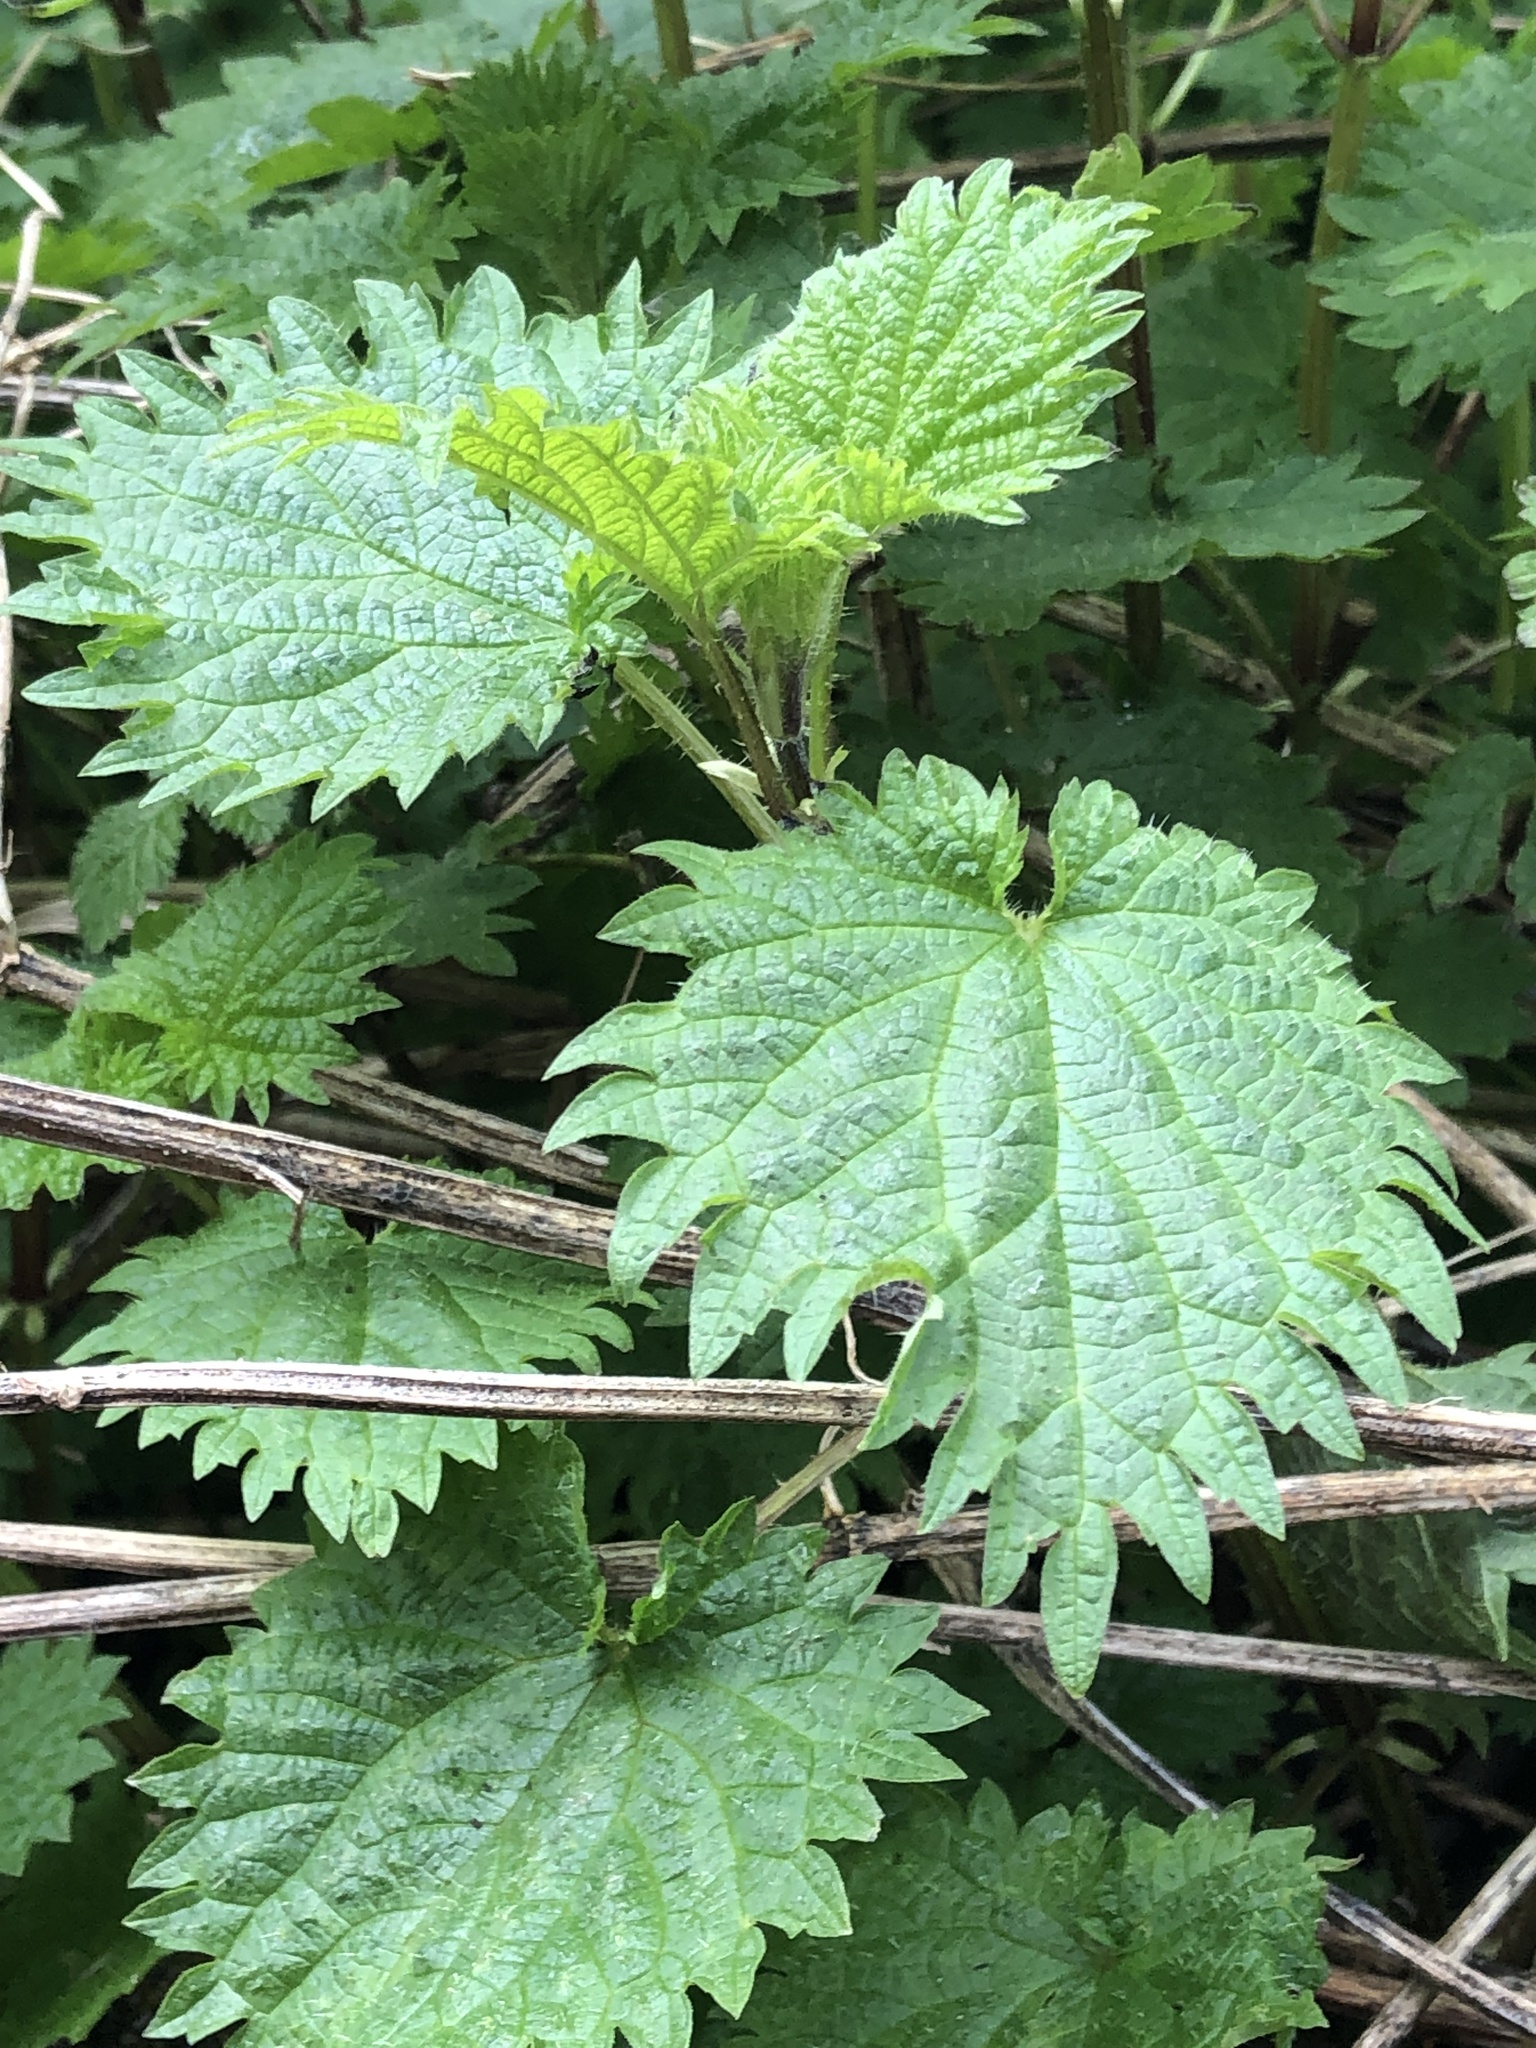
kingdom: Plantae
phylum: Tracheophyta
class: Magnoliopsida
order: Rosales
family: Urticaceae
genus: Urtica
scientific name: Urtica dioica
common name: Common nettle
